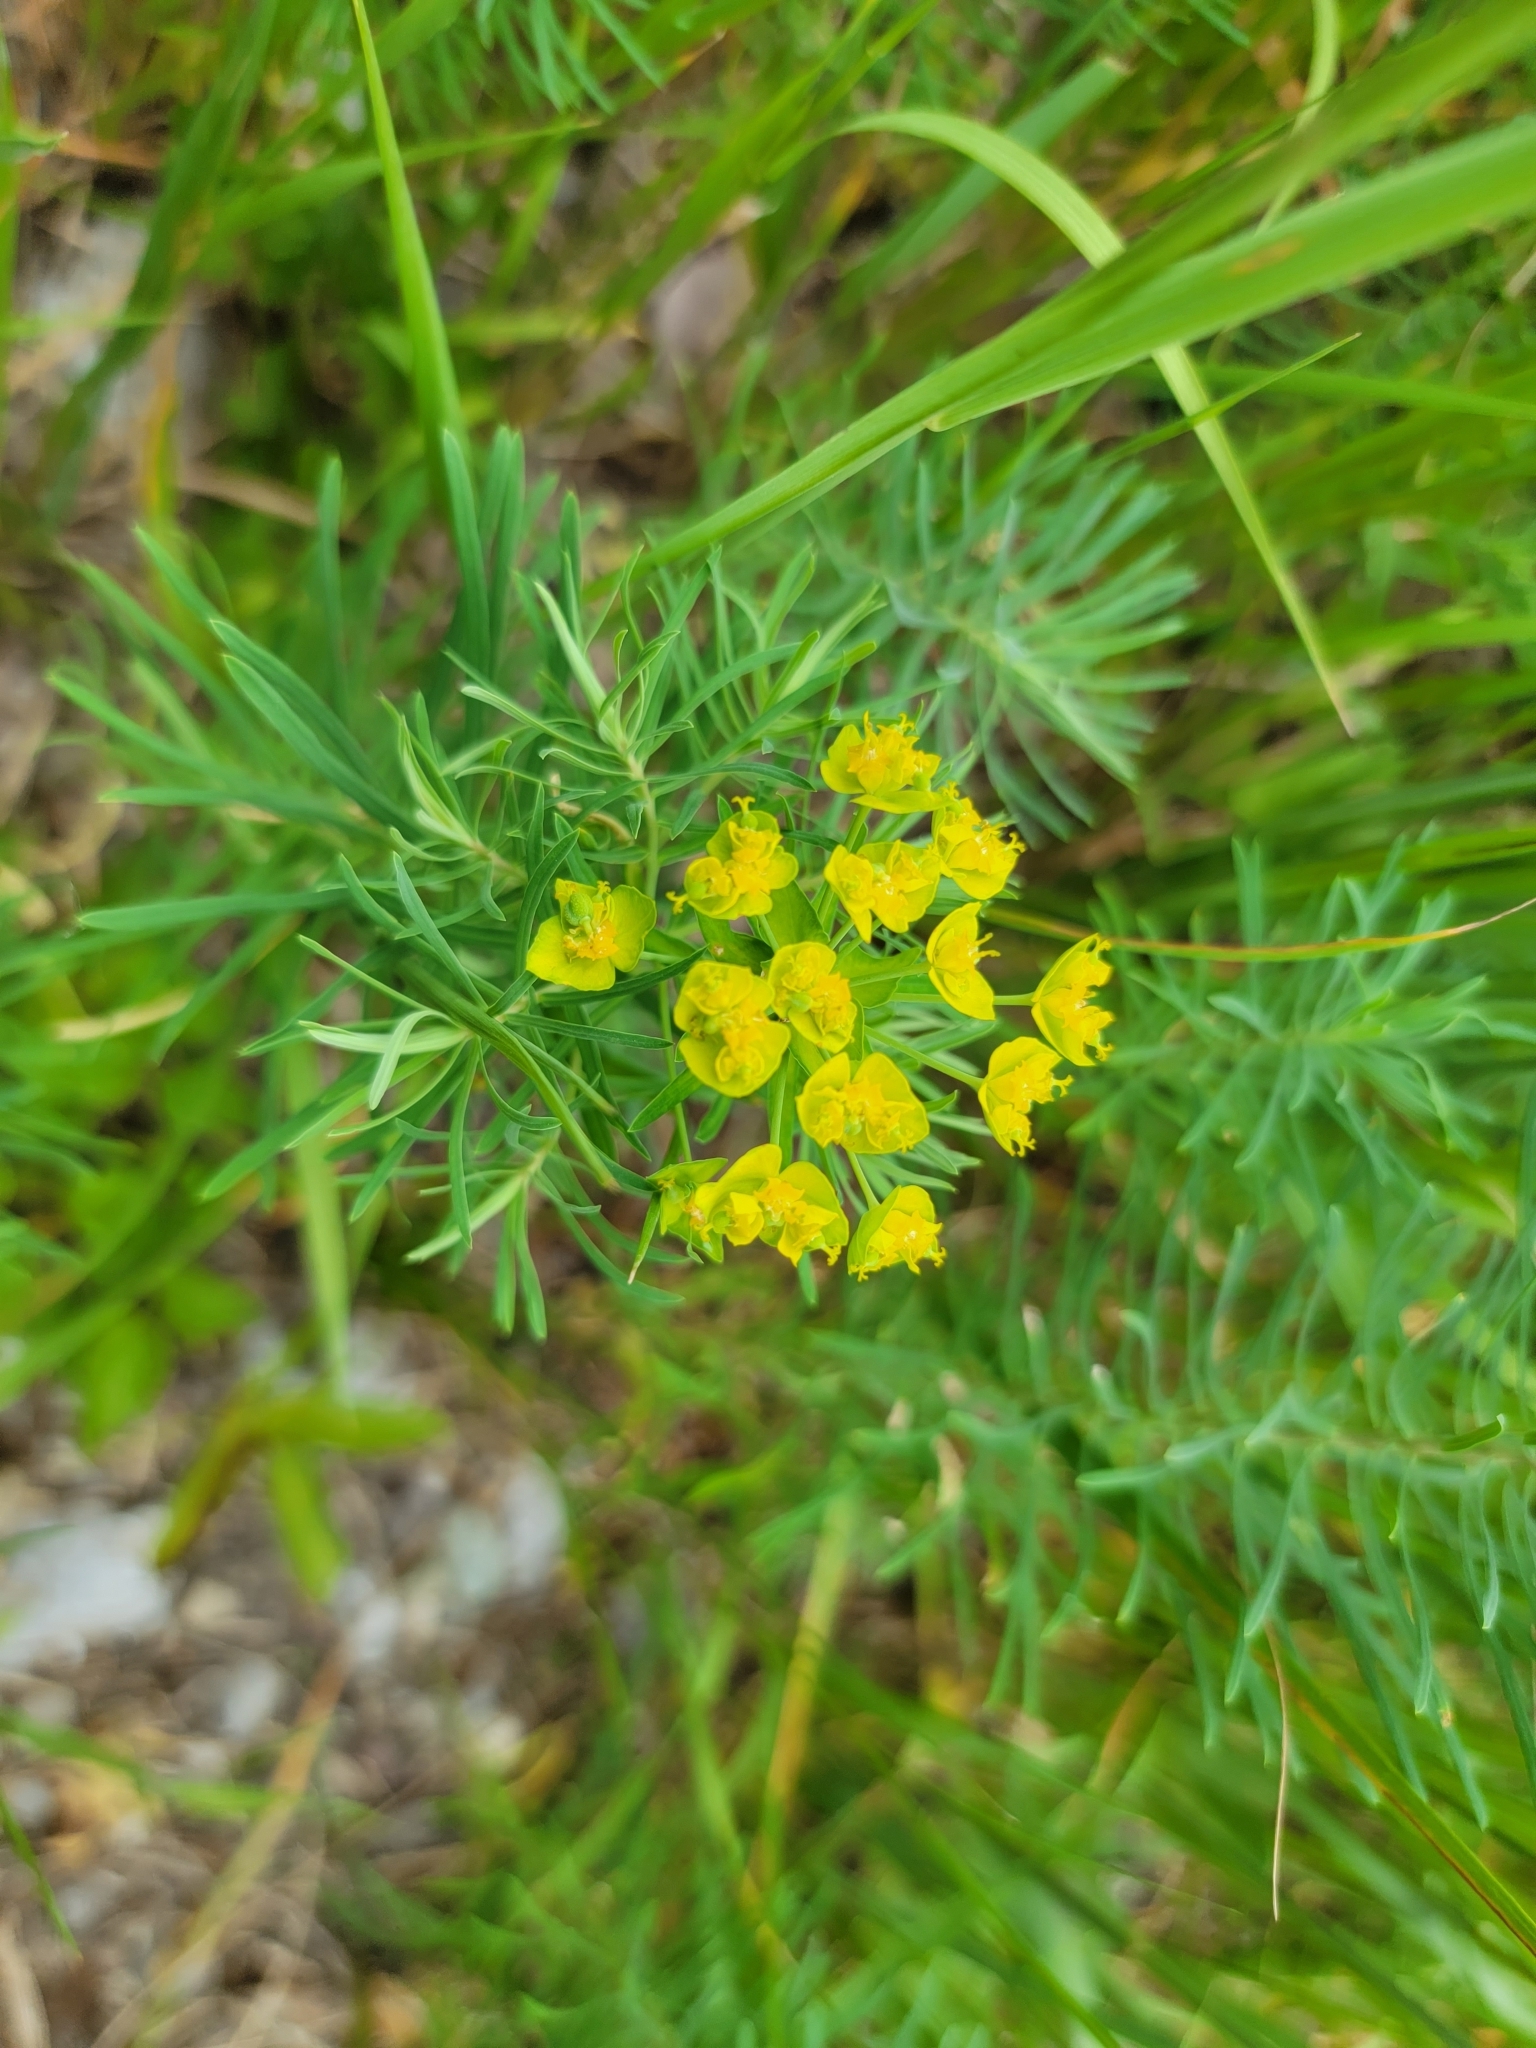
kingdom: Plantae
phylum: Tracheophyta
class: Magnoliopsida
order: Malpighiales
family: Euphorbiaceae
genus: Euphorbia
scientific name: Euphorbia cyparissias
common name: Cypress spurge
